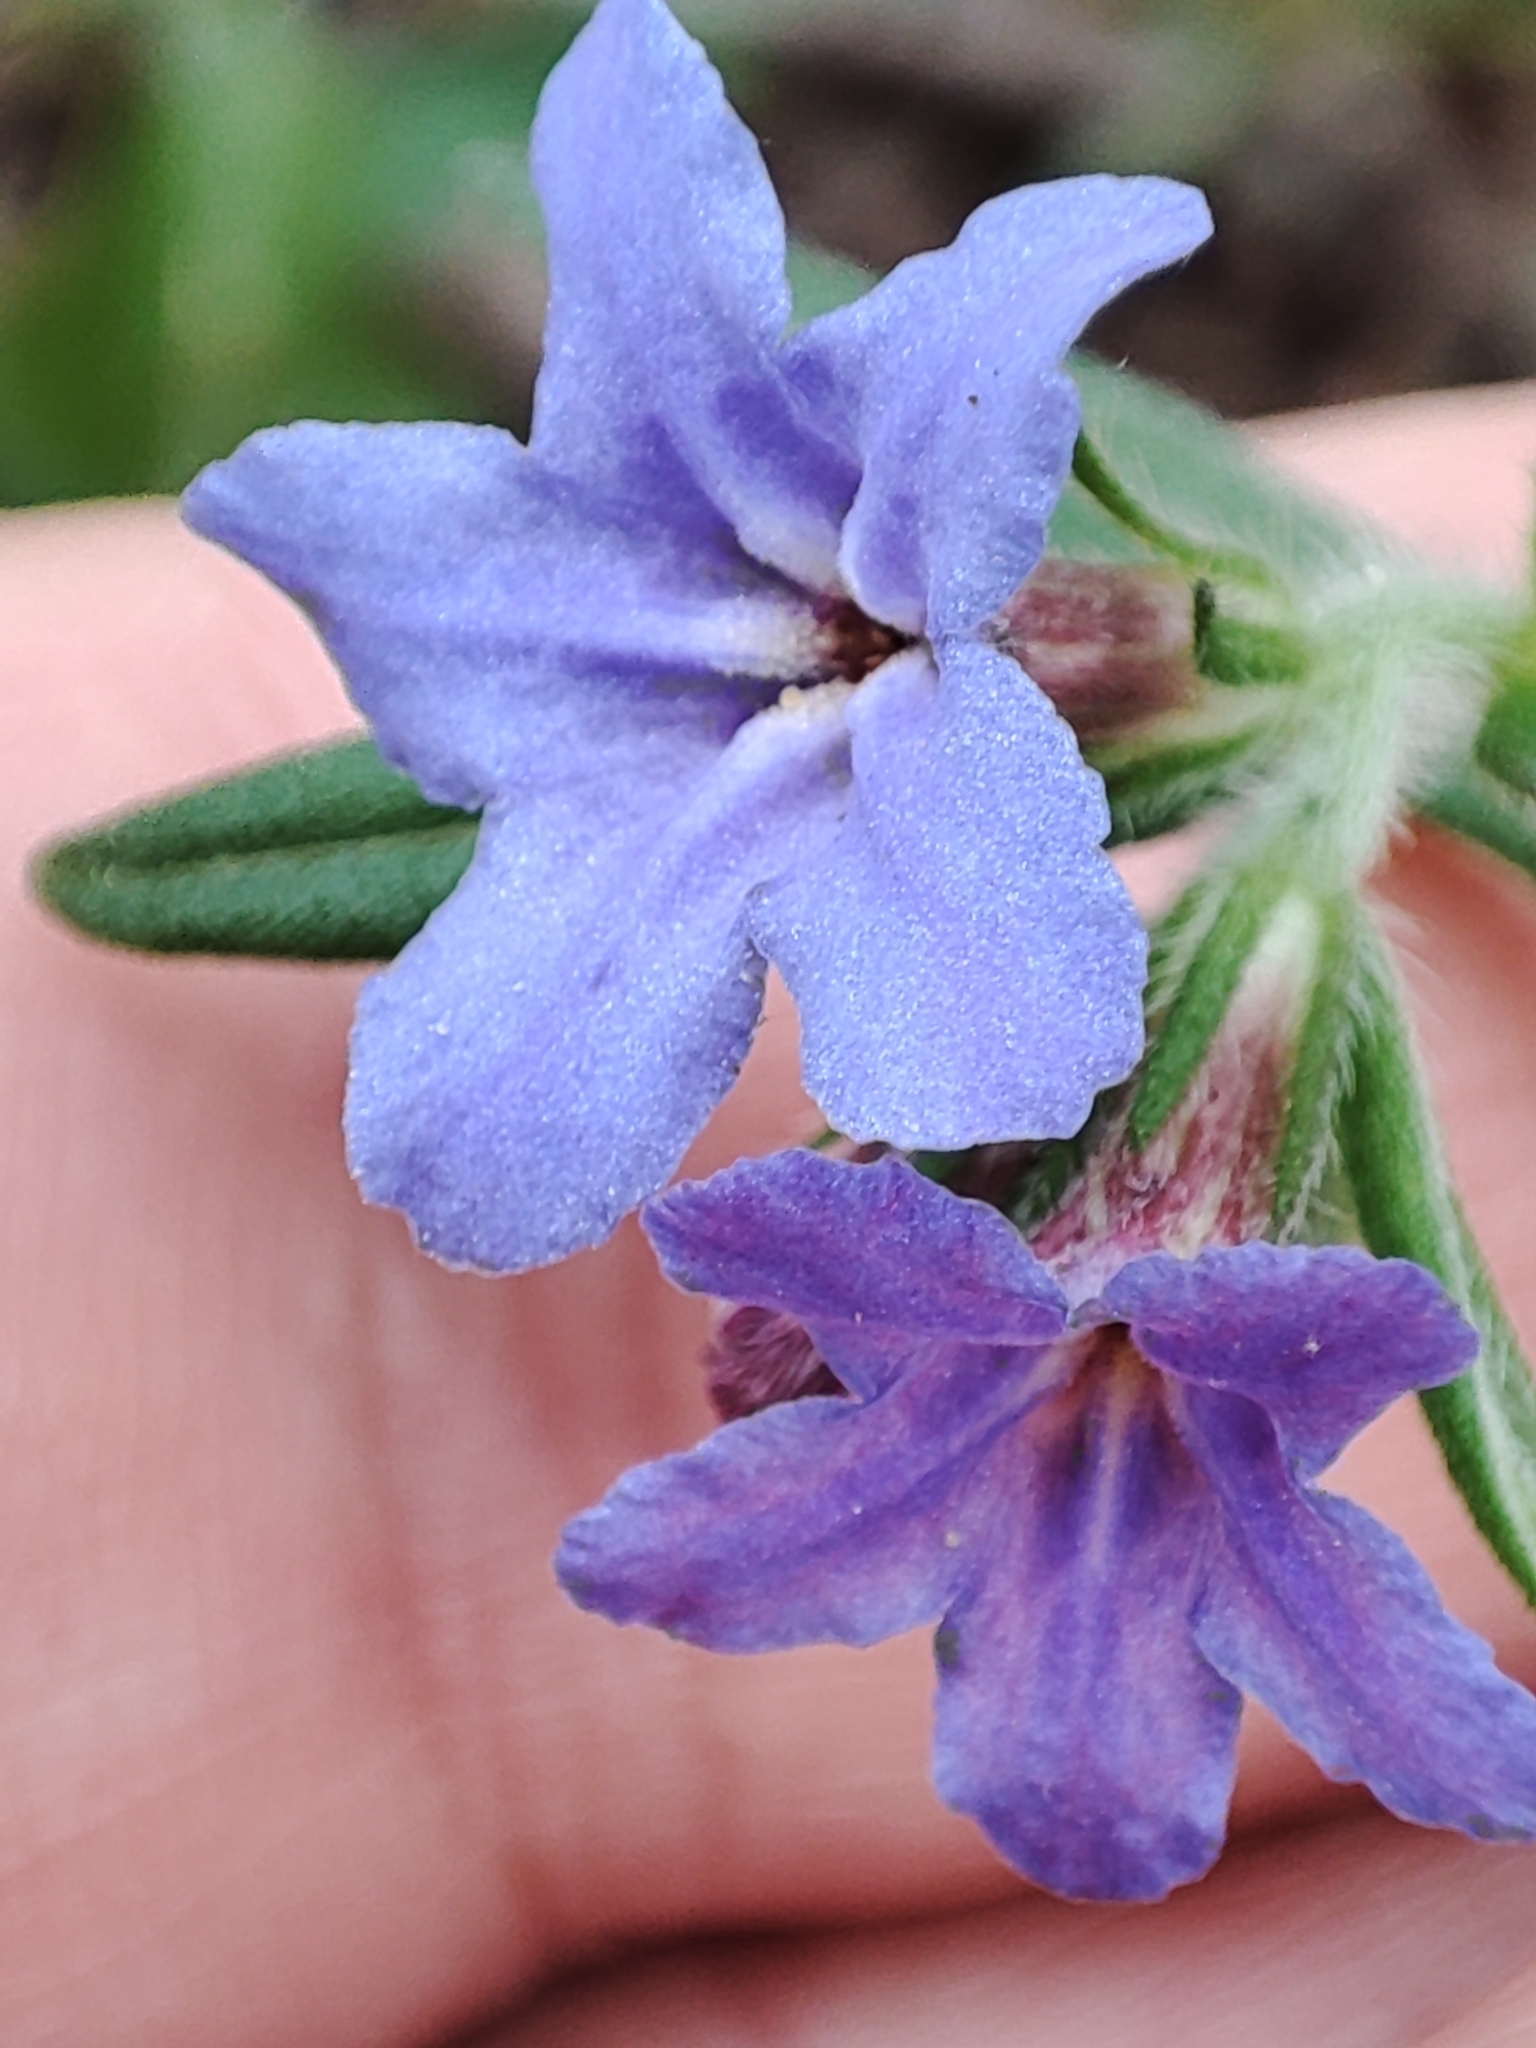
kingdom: Plantae
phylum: Tracheophyta
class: Magnoliopsida
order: Boraginales
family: Boraginaceae
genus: Aegonychon
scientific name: Aegonychon purpurocaeruleum
